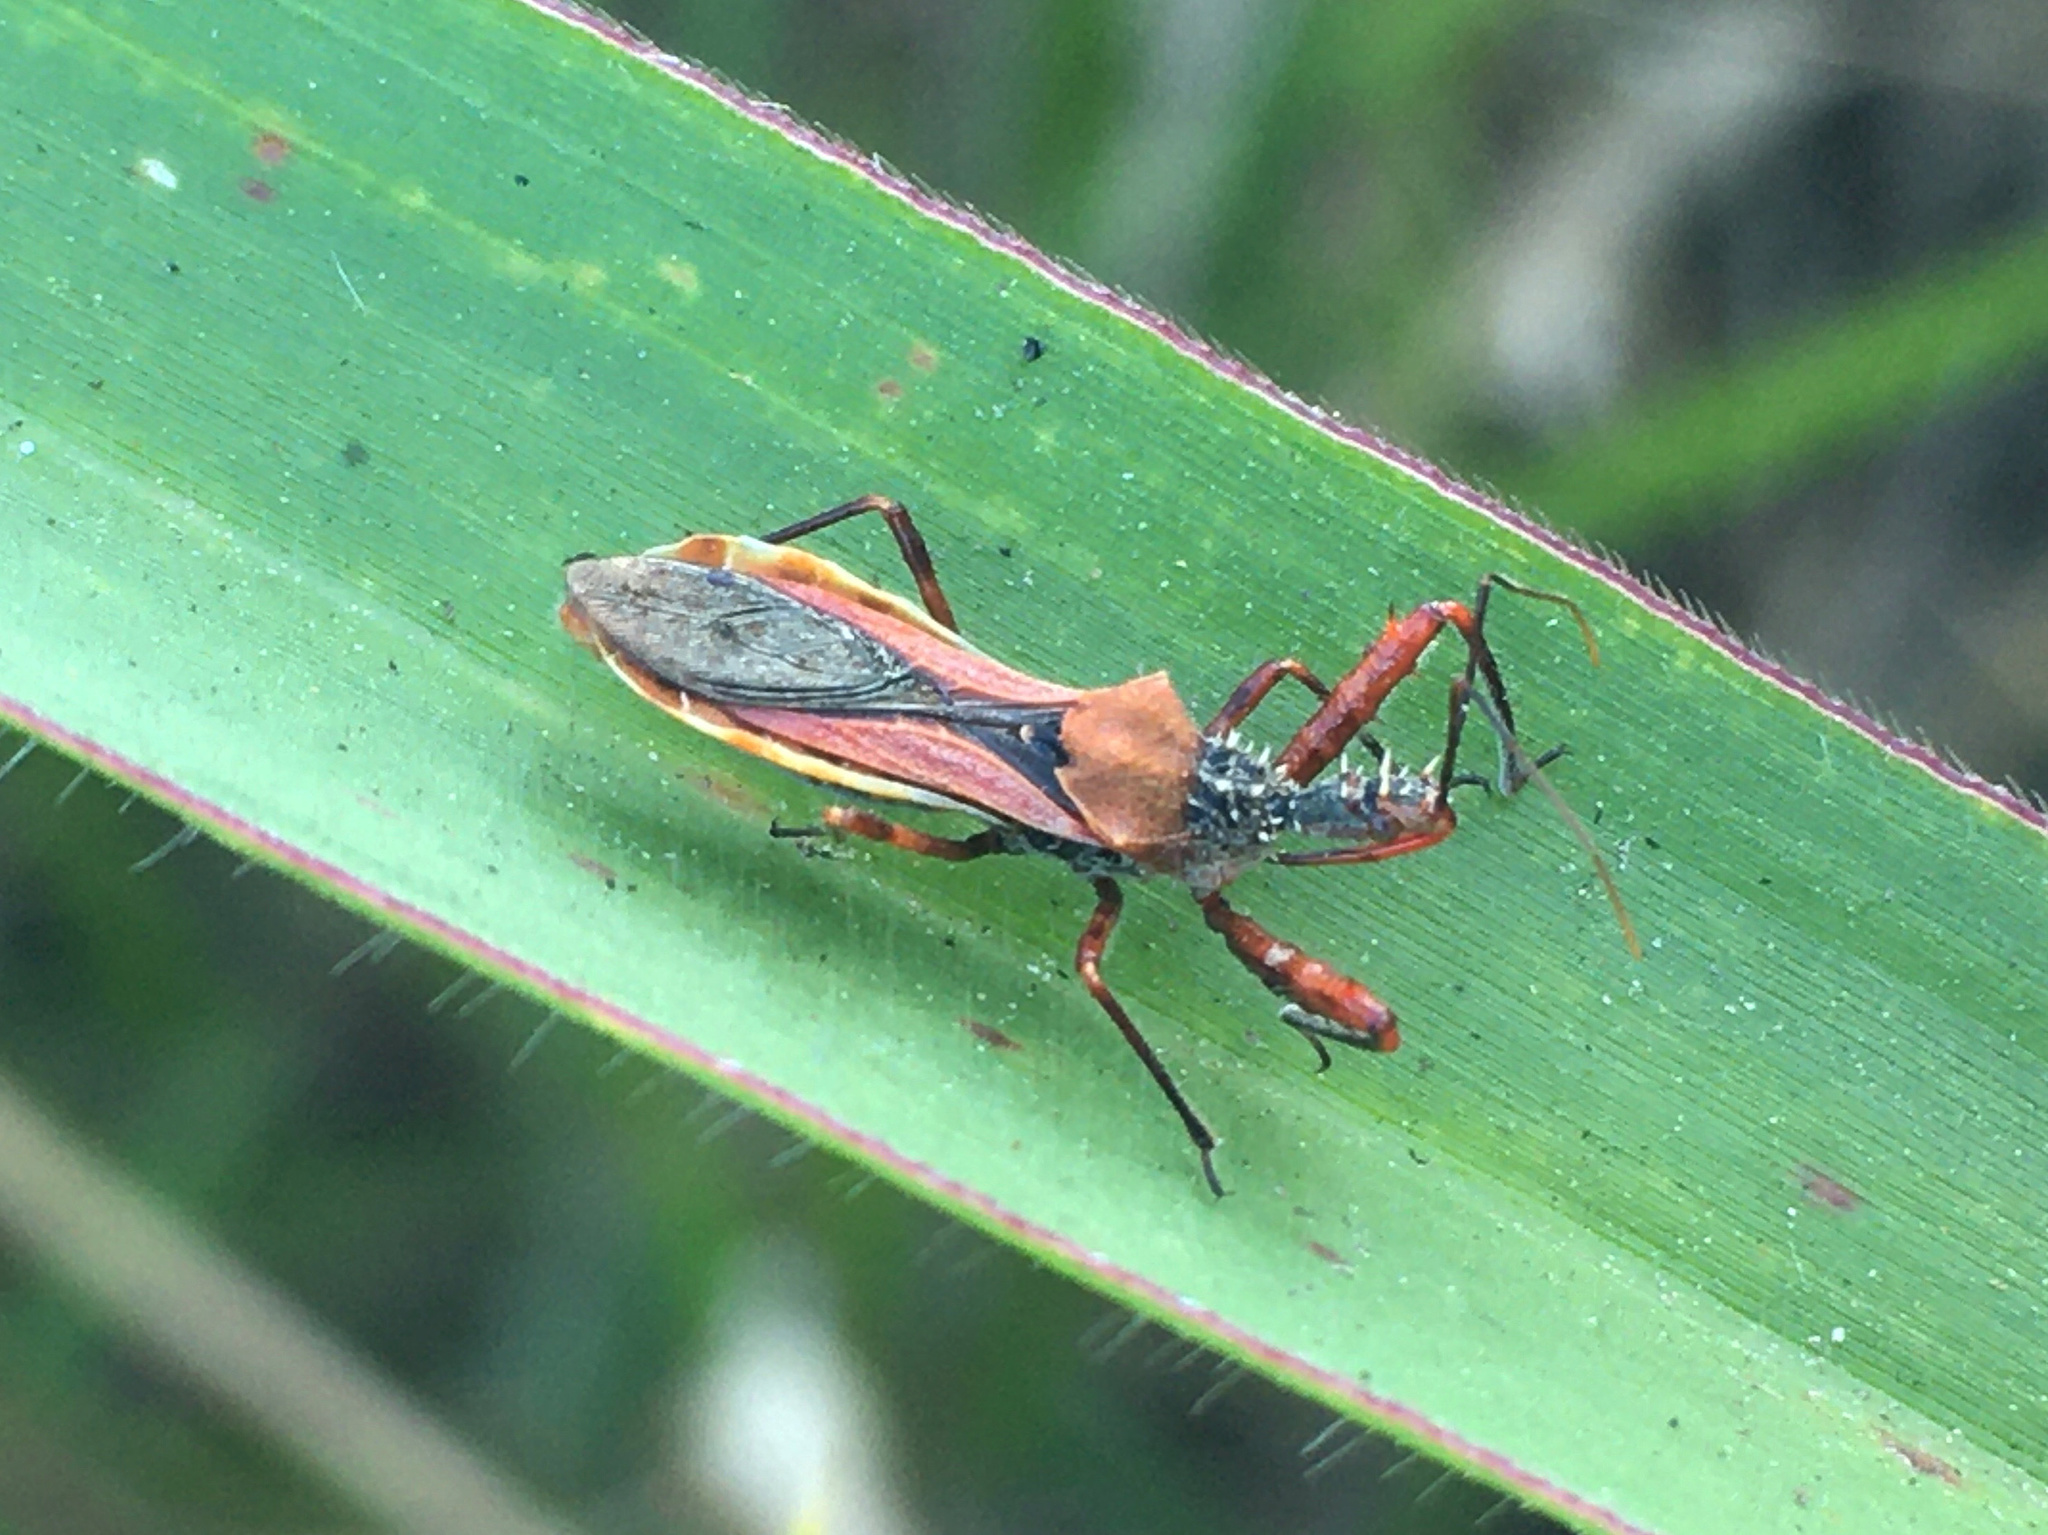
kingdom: Animalia
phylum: Arthropoda
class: Insecta
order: Hemiptera
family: Reduviidae
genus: Scipinia
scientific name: Scipinia arenacea
